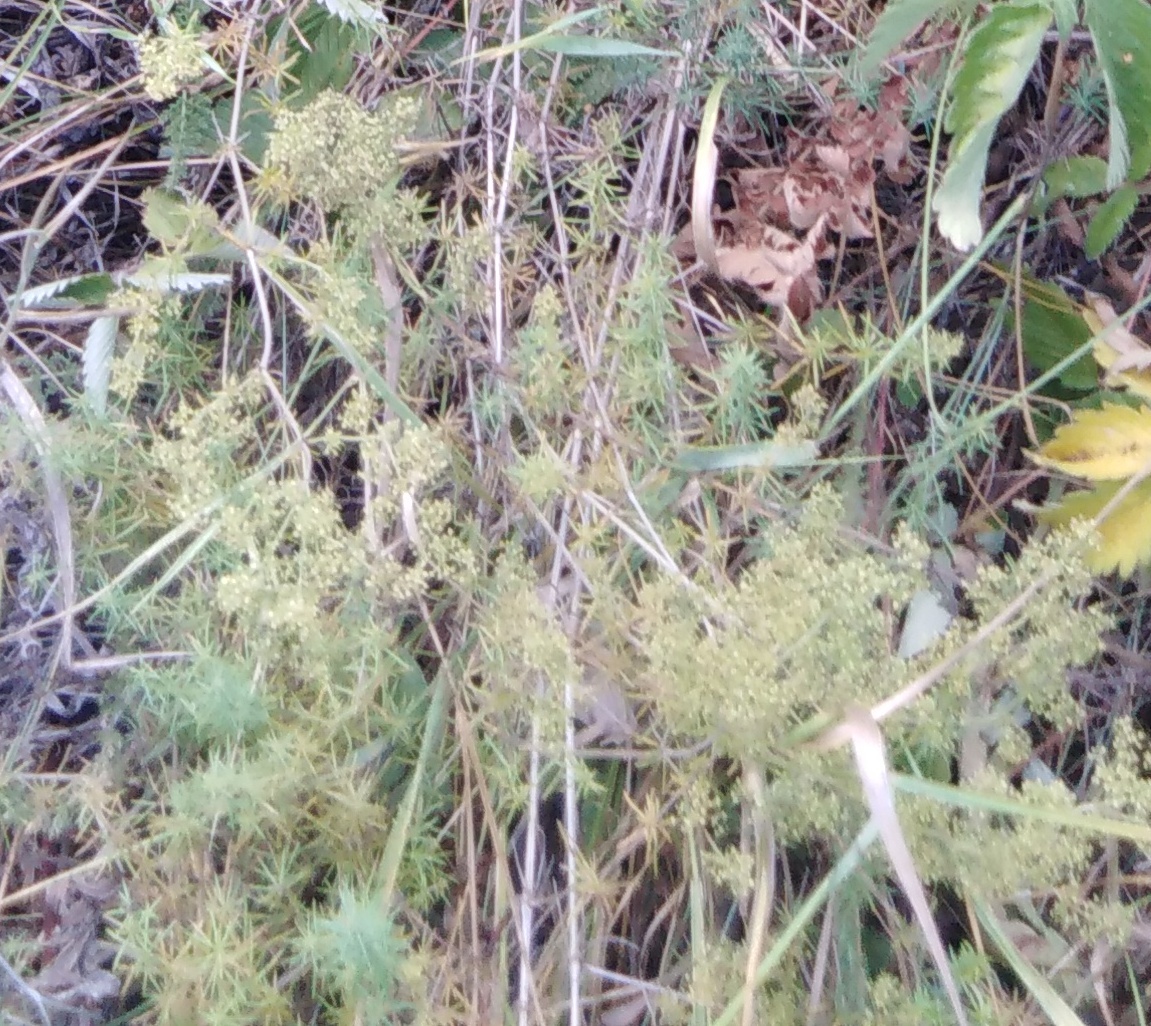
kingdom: Plantae
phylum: Tracheophyta
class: Magnoliopsida
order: Gentianales
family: Rubiaceae
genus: Galium
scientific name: Galium verum
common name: Lady's bedstraw
